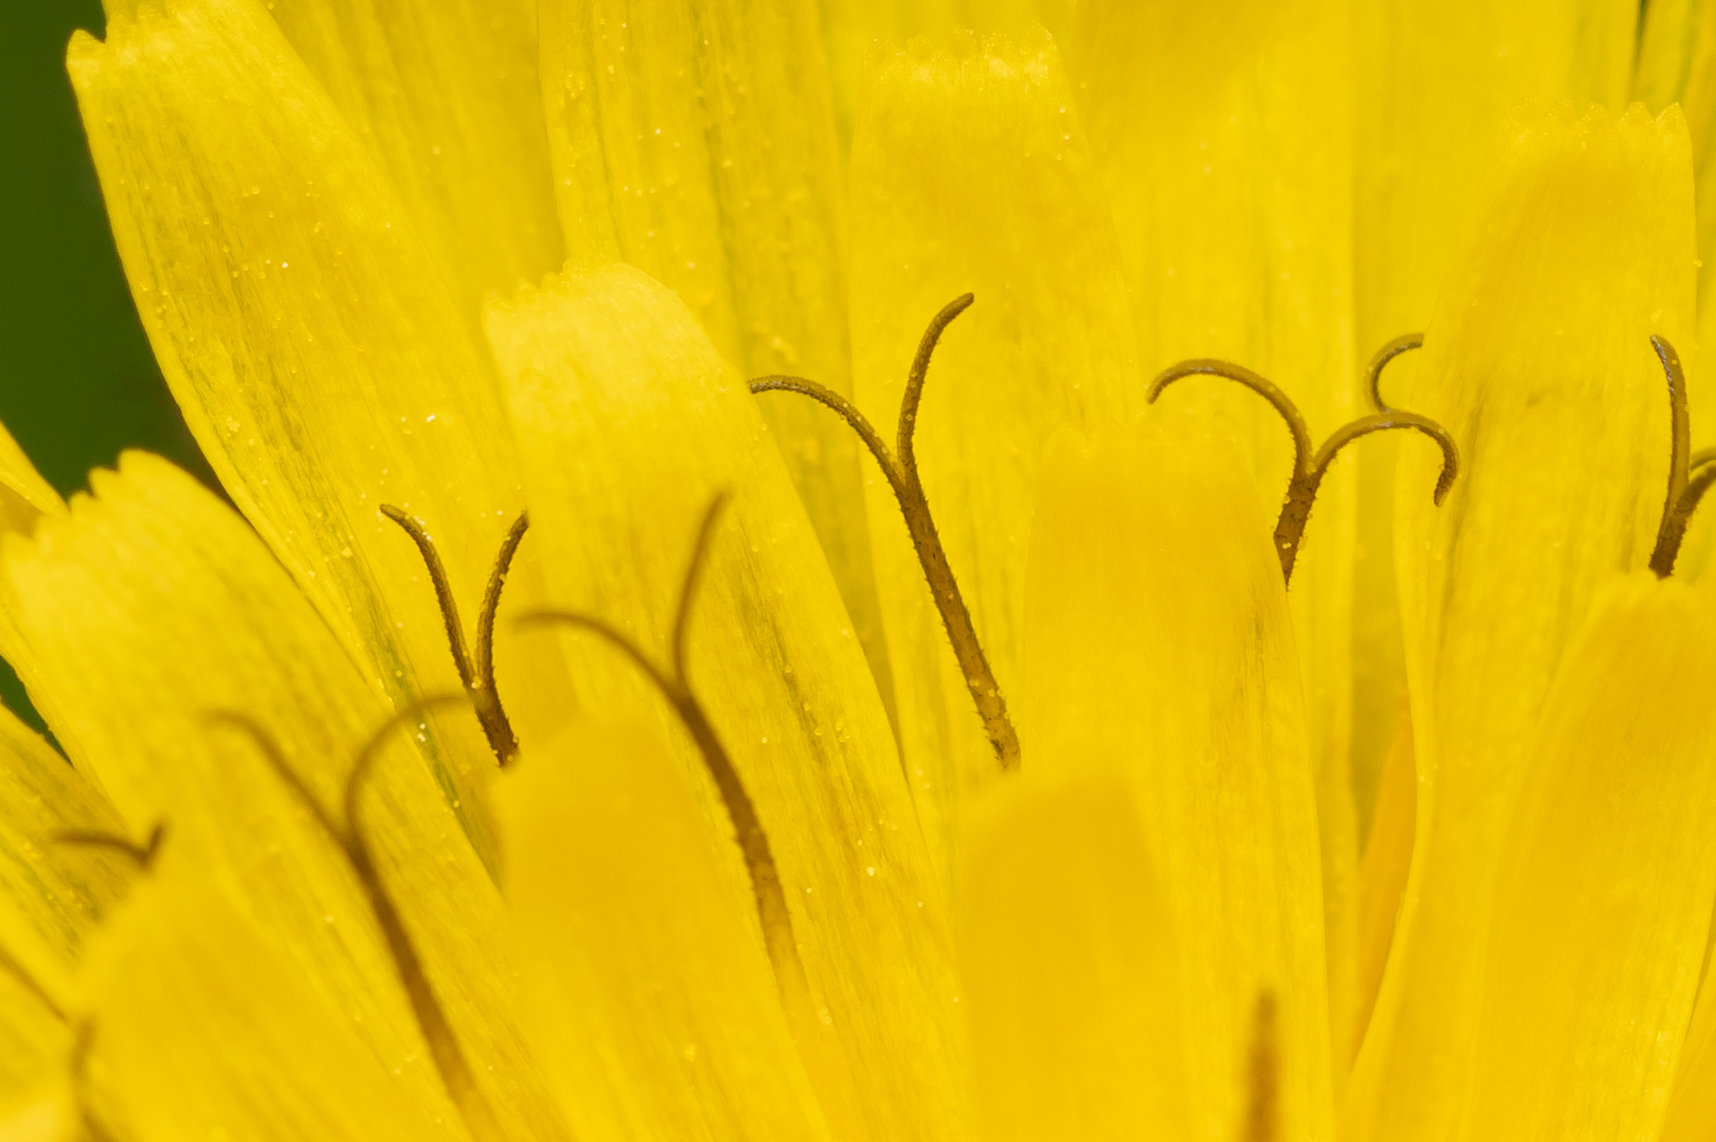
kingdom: Plantae
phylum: Tracheophyta
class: Magnoliopsida
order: Asterales
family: Asteraceae
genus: Crepis
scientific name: Crepis sancta
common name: Hawk's-beard
